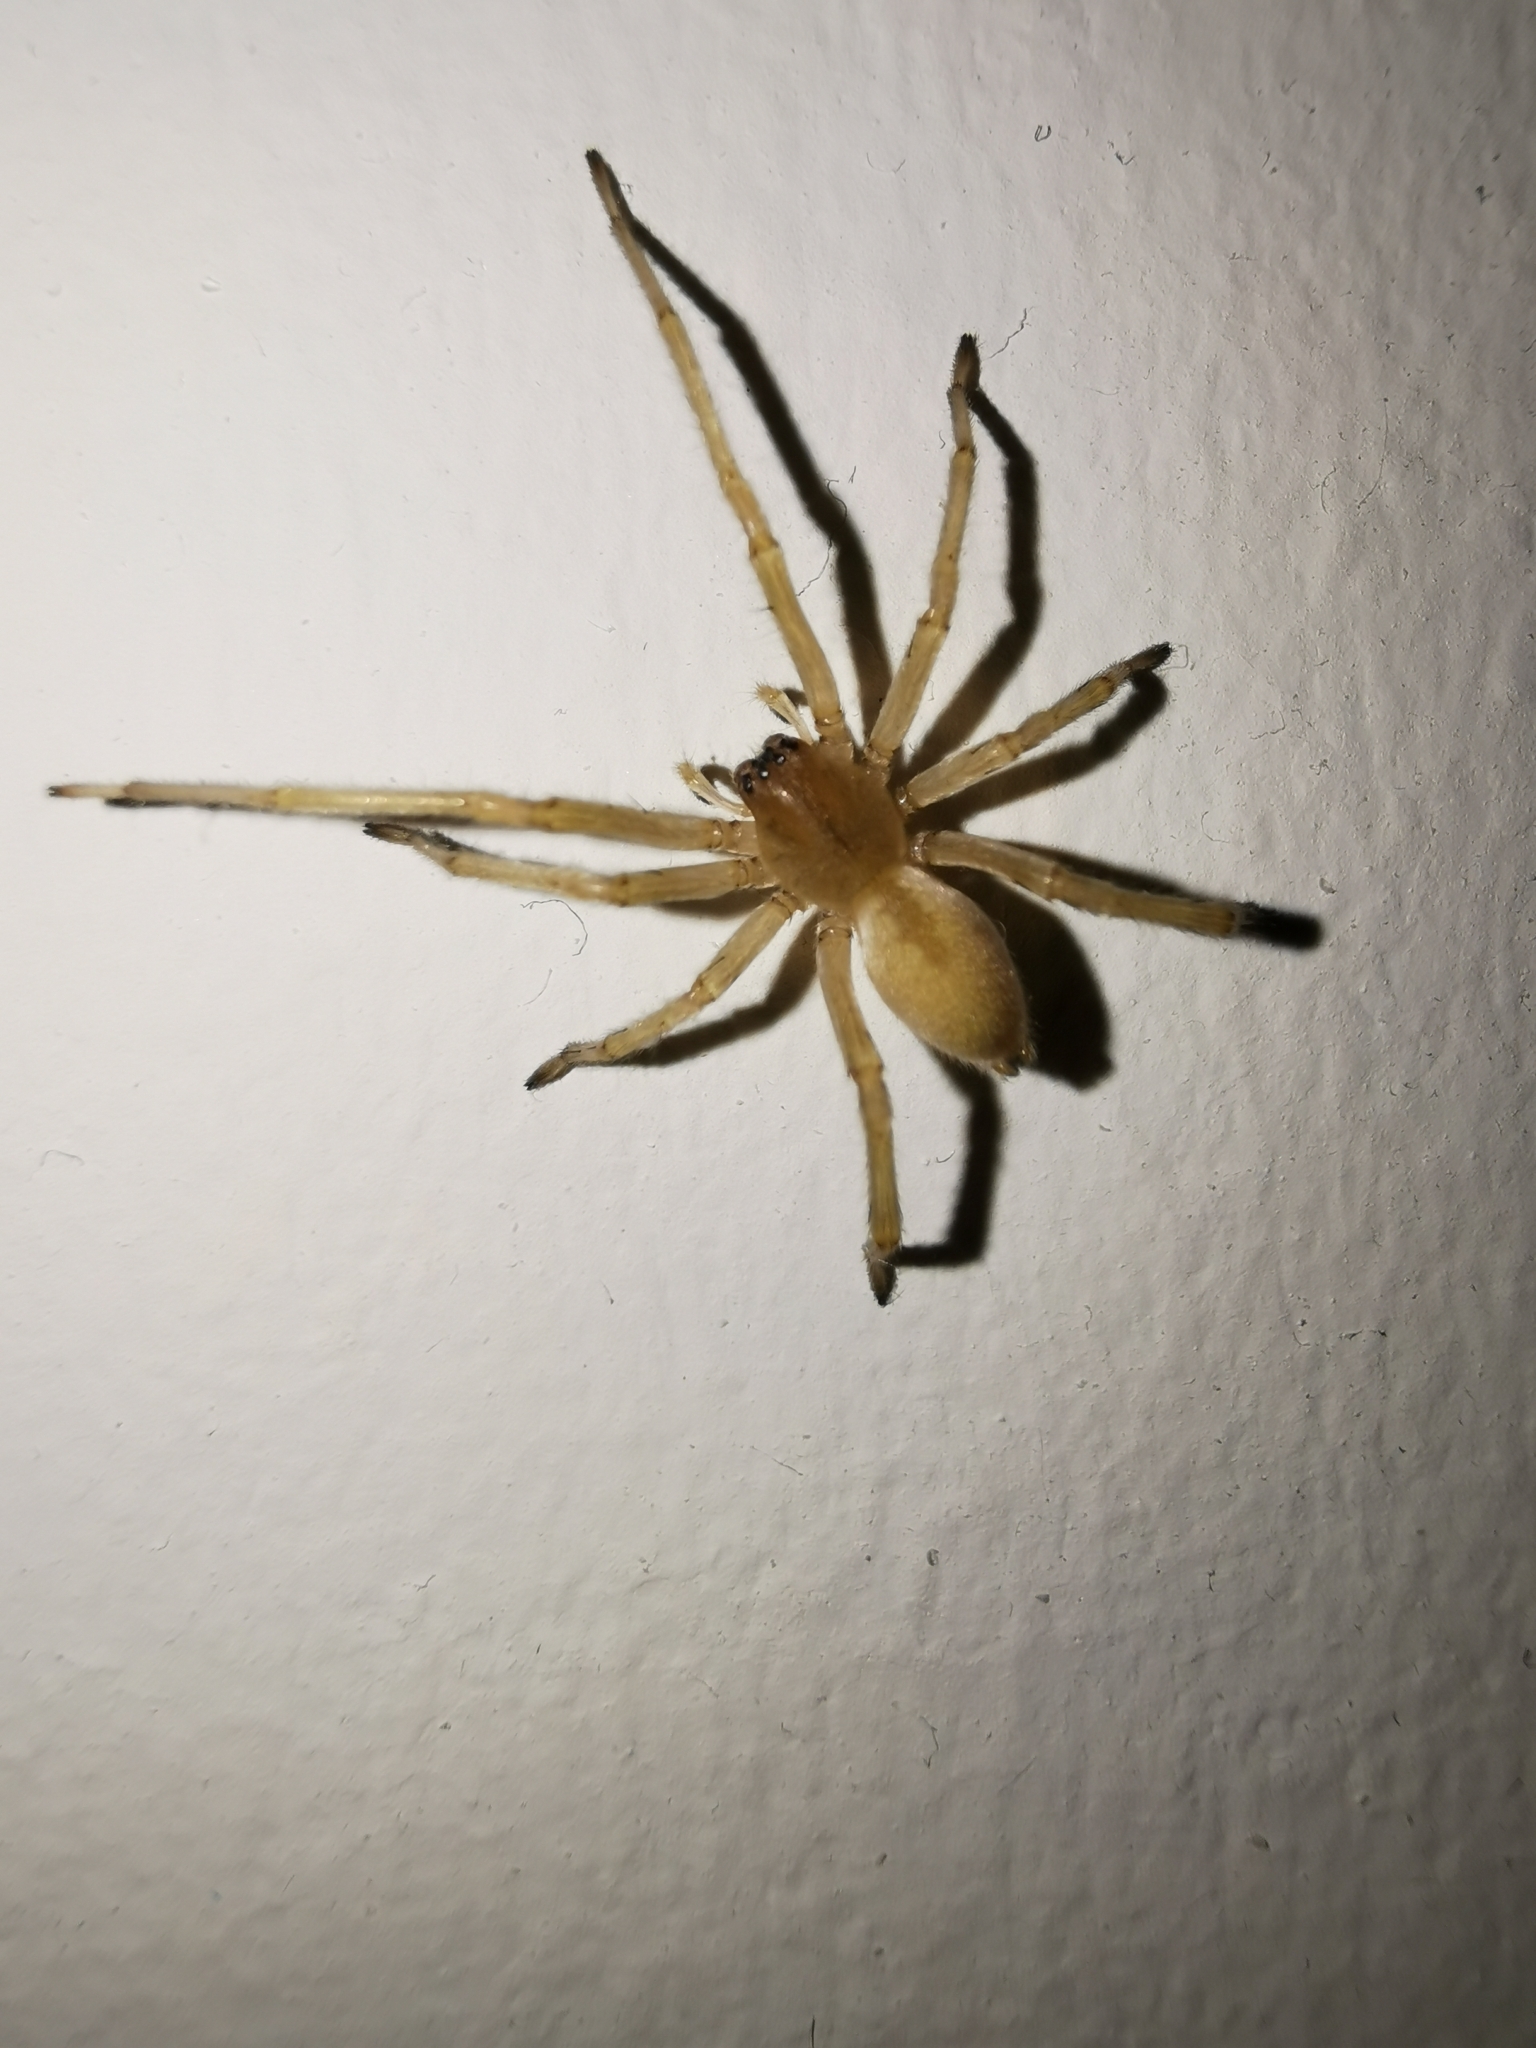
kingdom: Animalia
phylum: Arthropoda
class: Arachnida
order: Araneae
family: Cheiracanthiidae
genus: Cheiracanthium
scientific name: Cheiracanthium mildei
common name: Northern yellow sac spider
